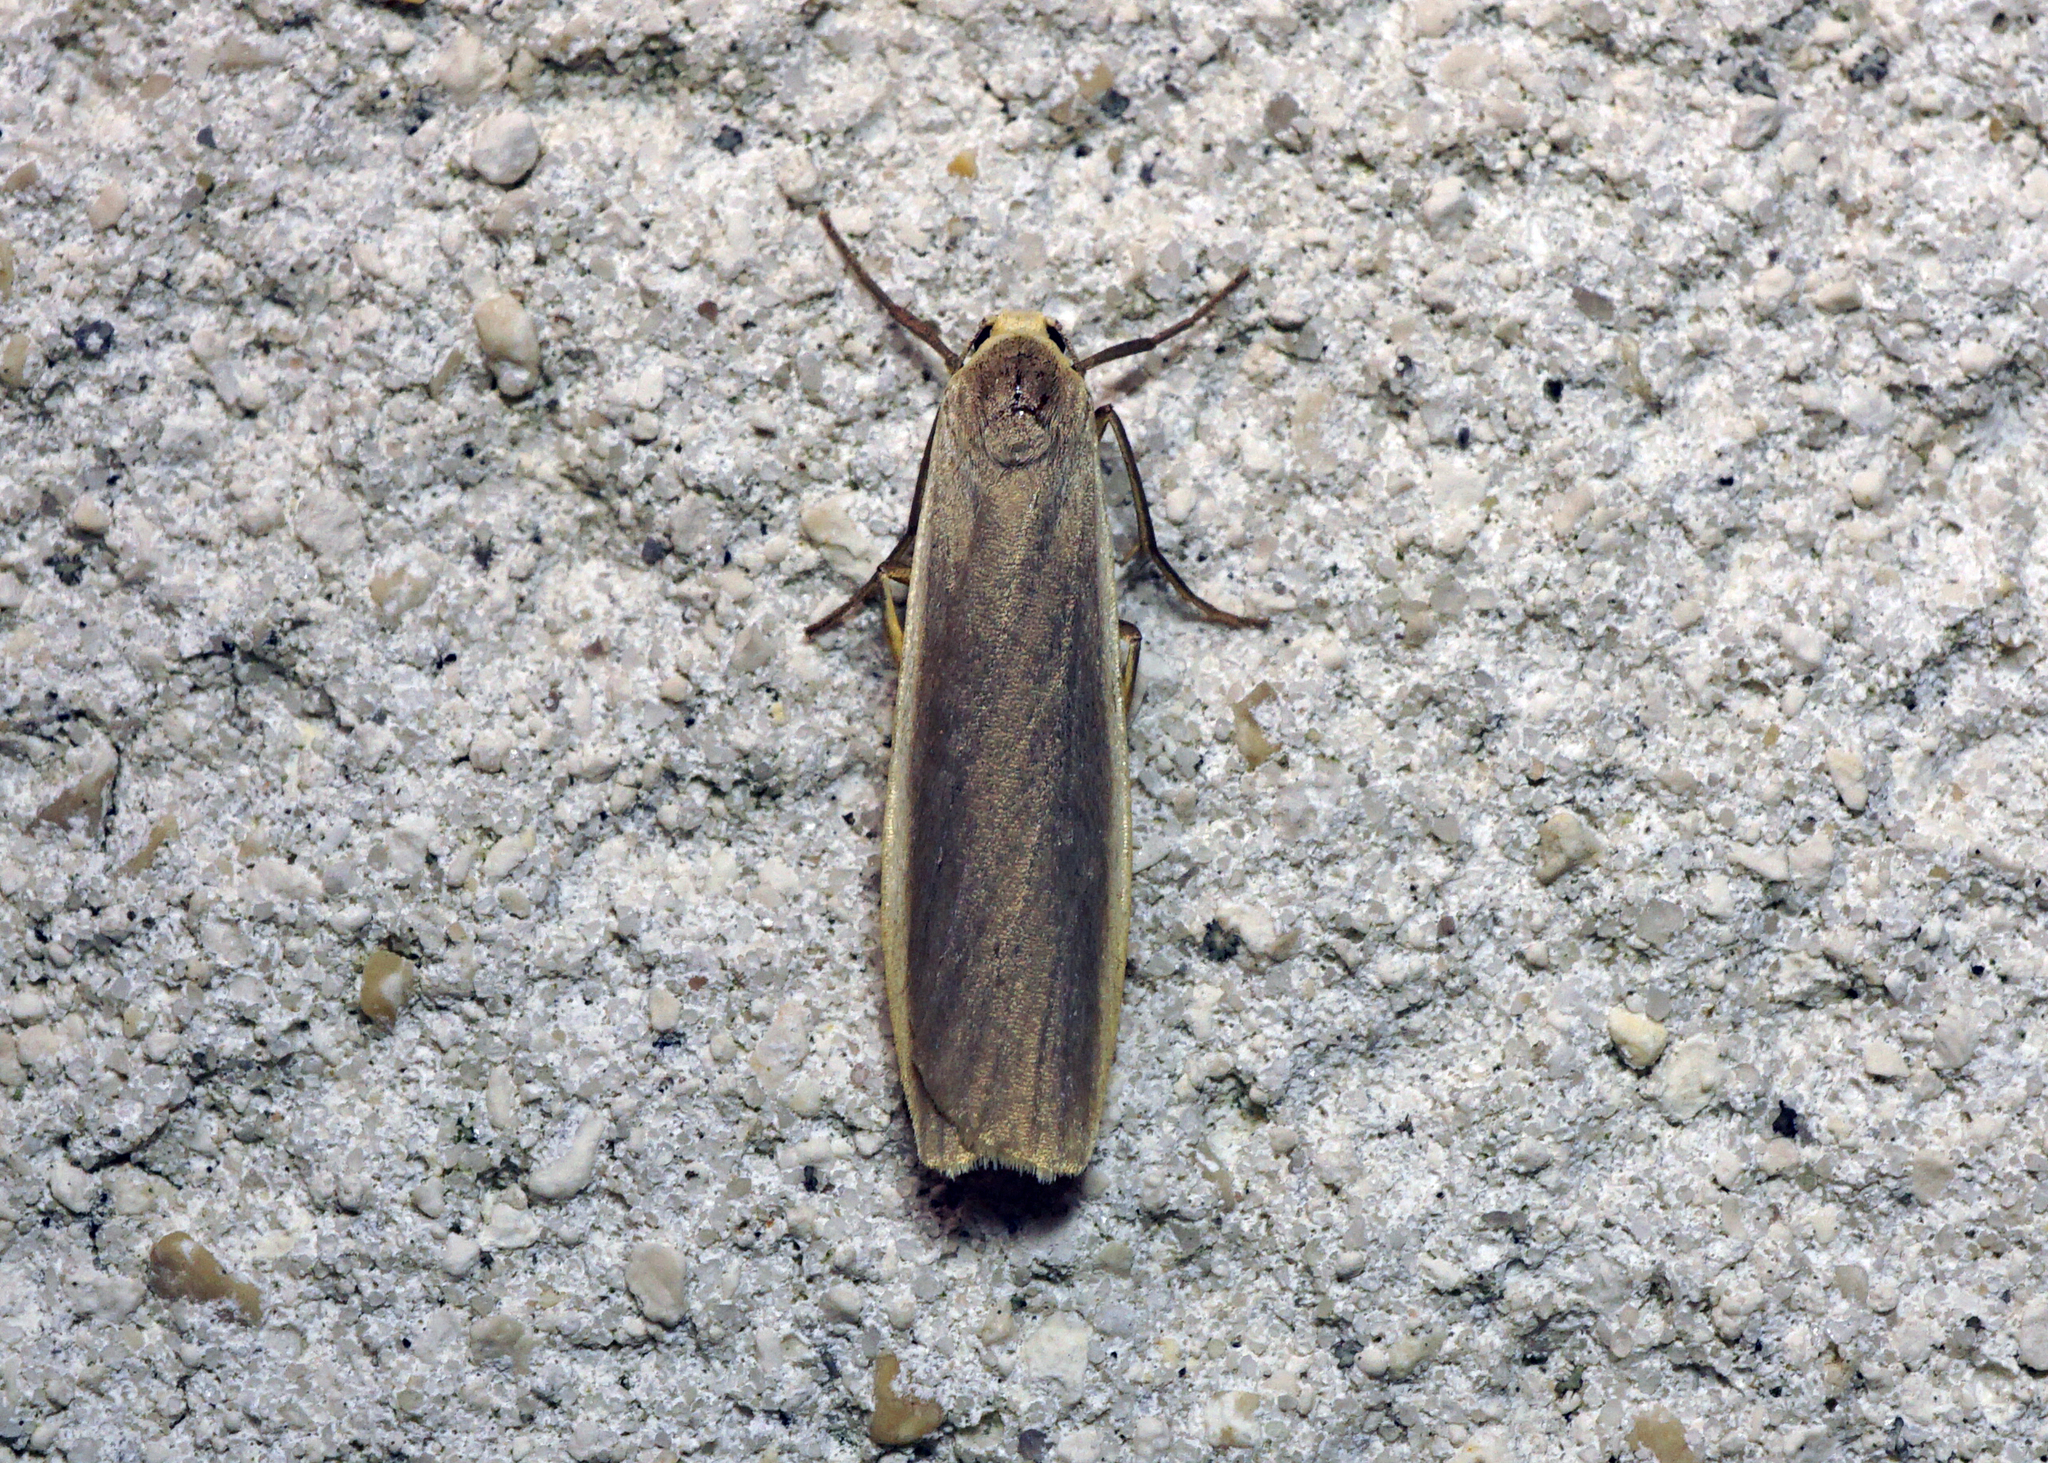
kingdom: Animalia
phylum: Arthropoda
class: Insecta
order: Lepidoptera
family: Erebidae
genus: Nyea
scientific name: Nyea lurideola
